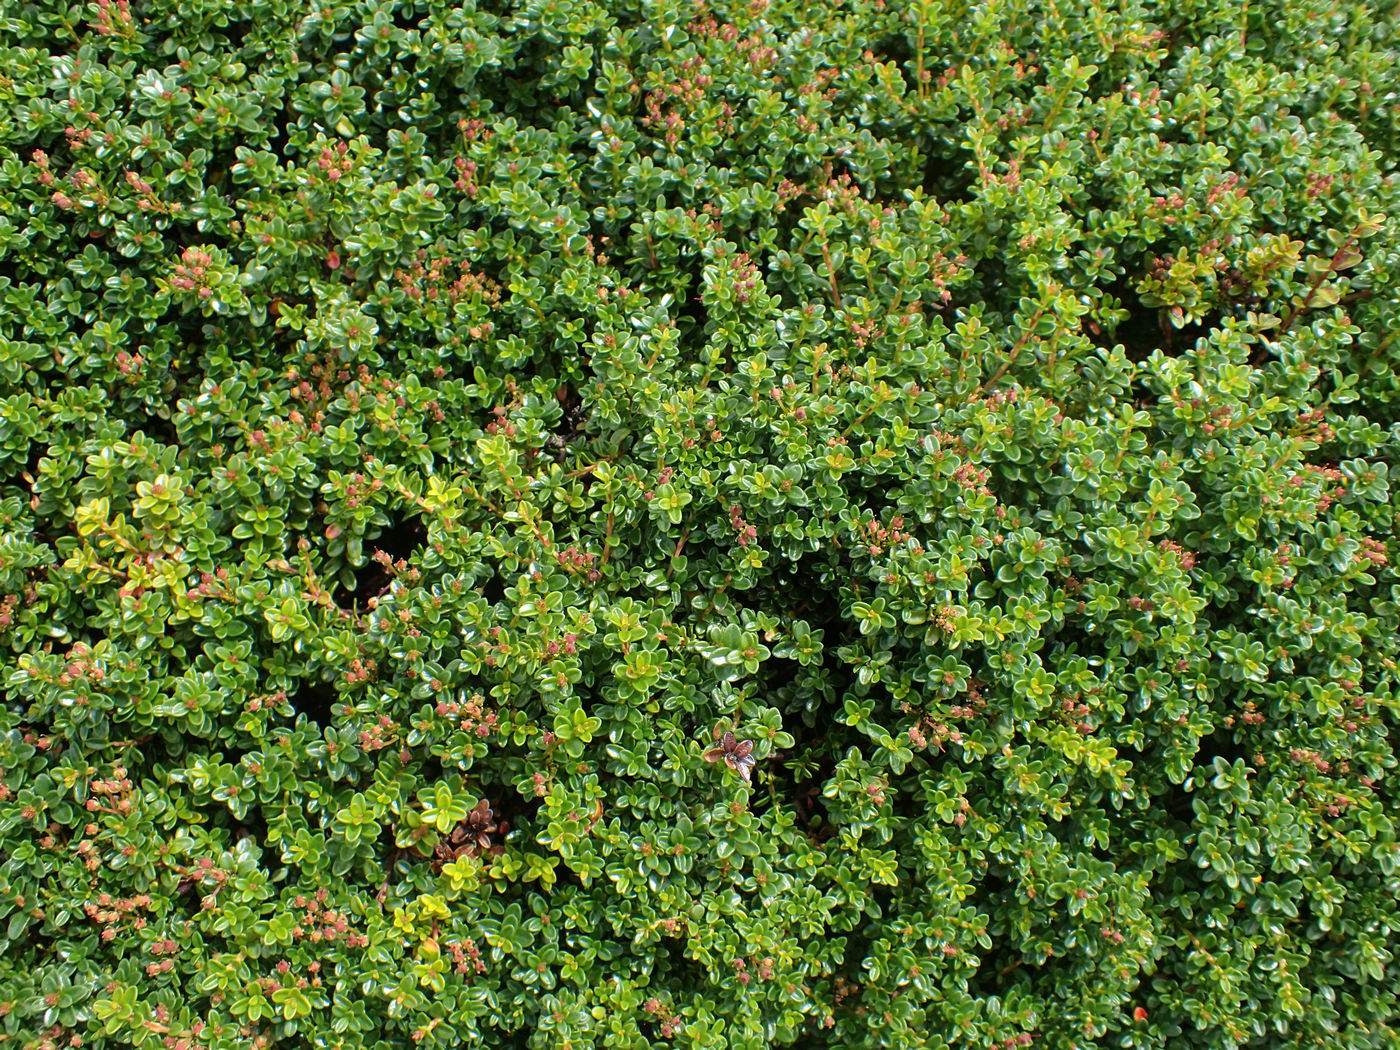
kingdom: Plantae
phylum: Tracheophyta
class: Magnoliopsida
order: Ericales
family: Ericaceae
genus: Kalmia
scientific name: Kalmia buxifolia
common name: Sandmyrtle
